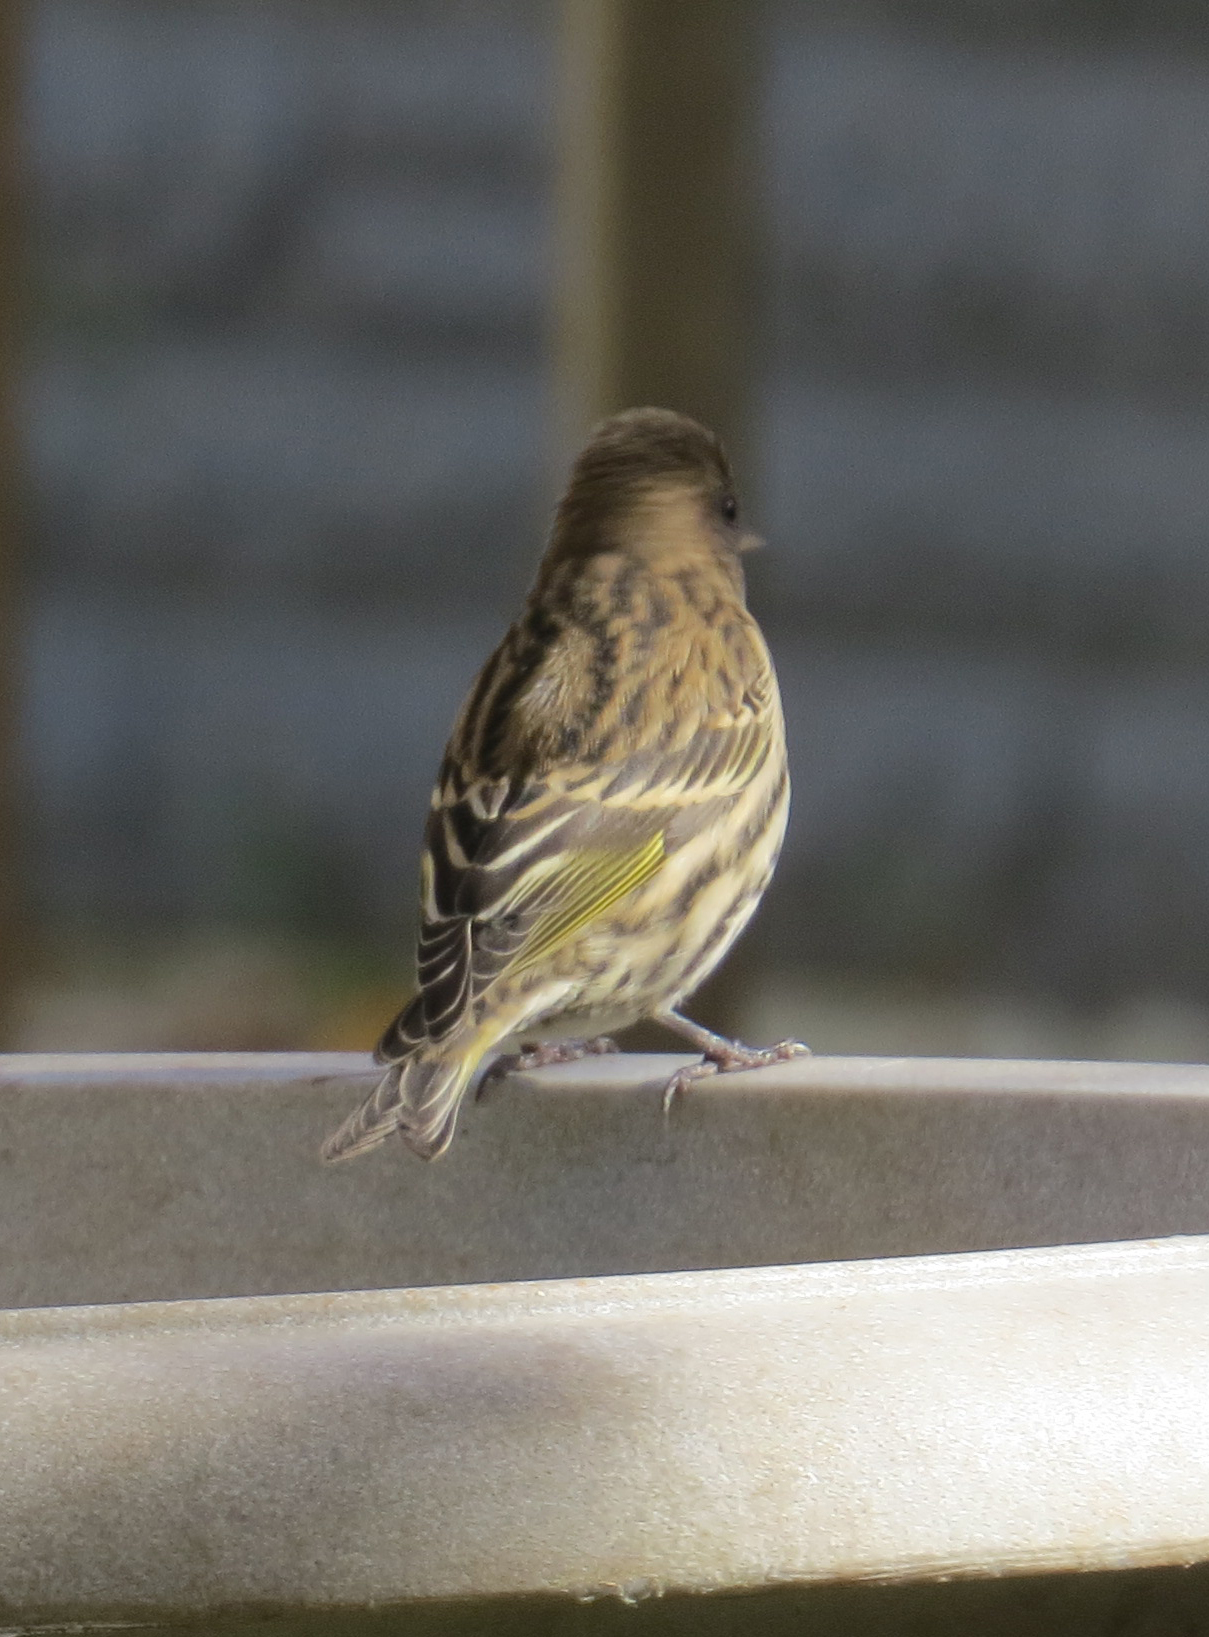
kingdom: Animalia
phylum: Chordata
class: Aves
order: Passeriformes
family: Fringillidae
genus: Spinus
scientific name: Spinus pinus
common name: Pine siskin
